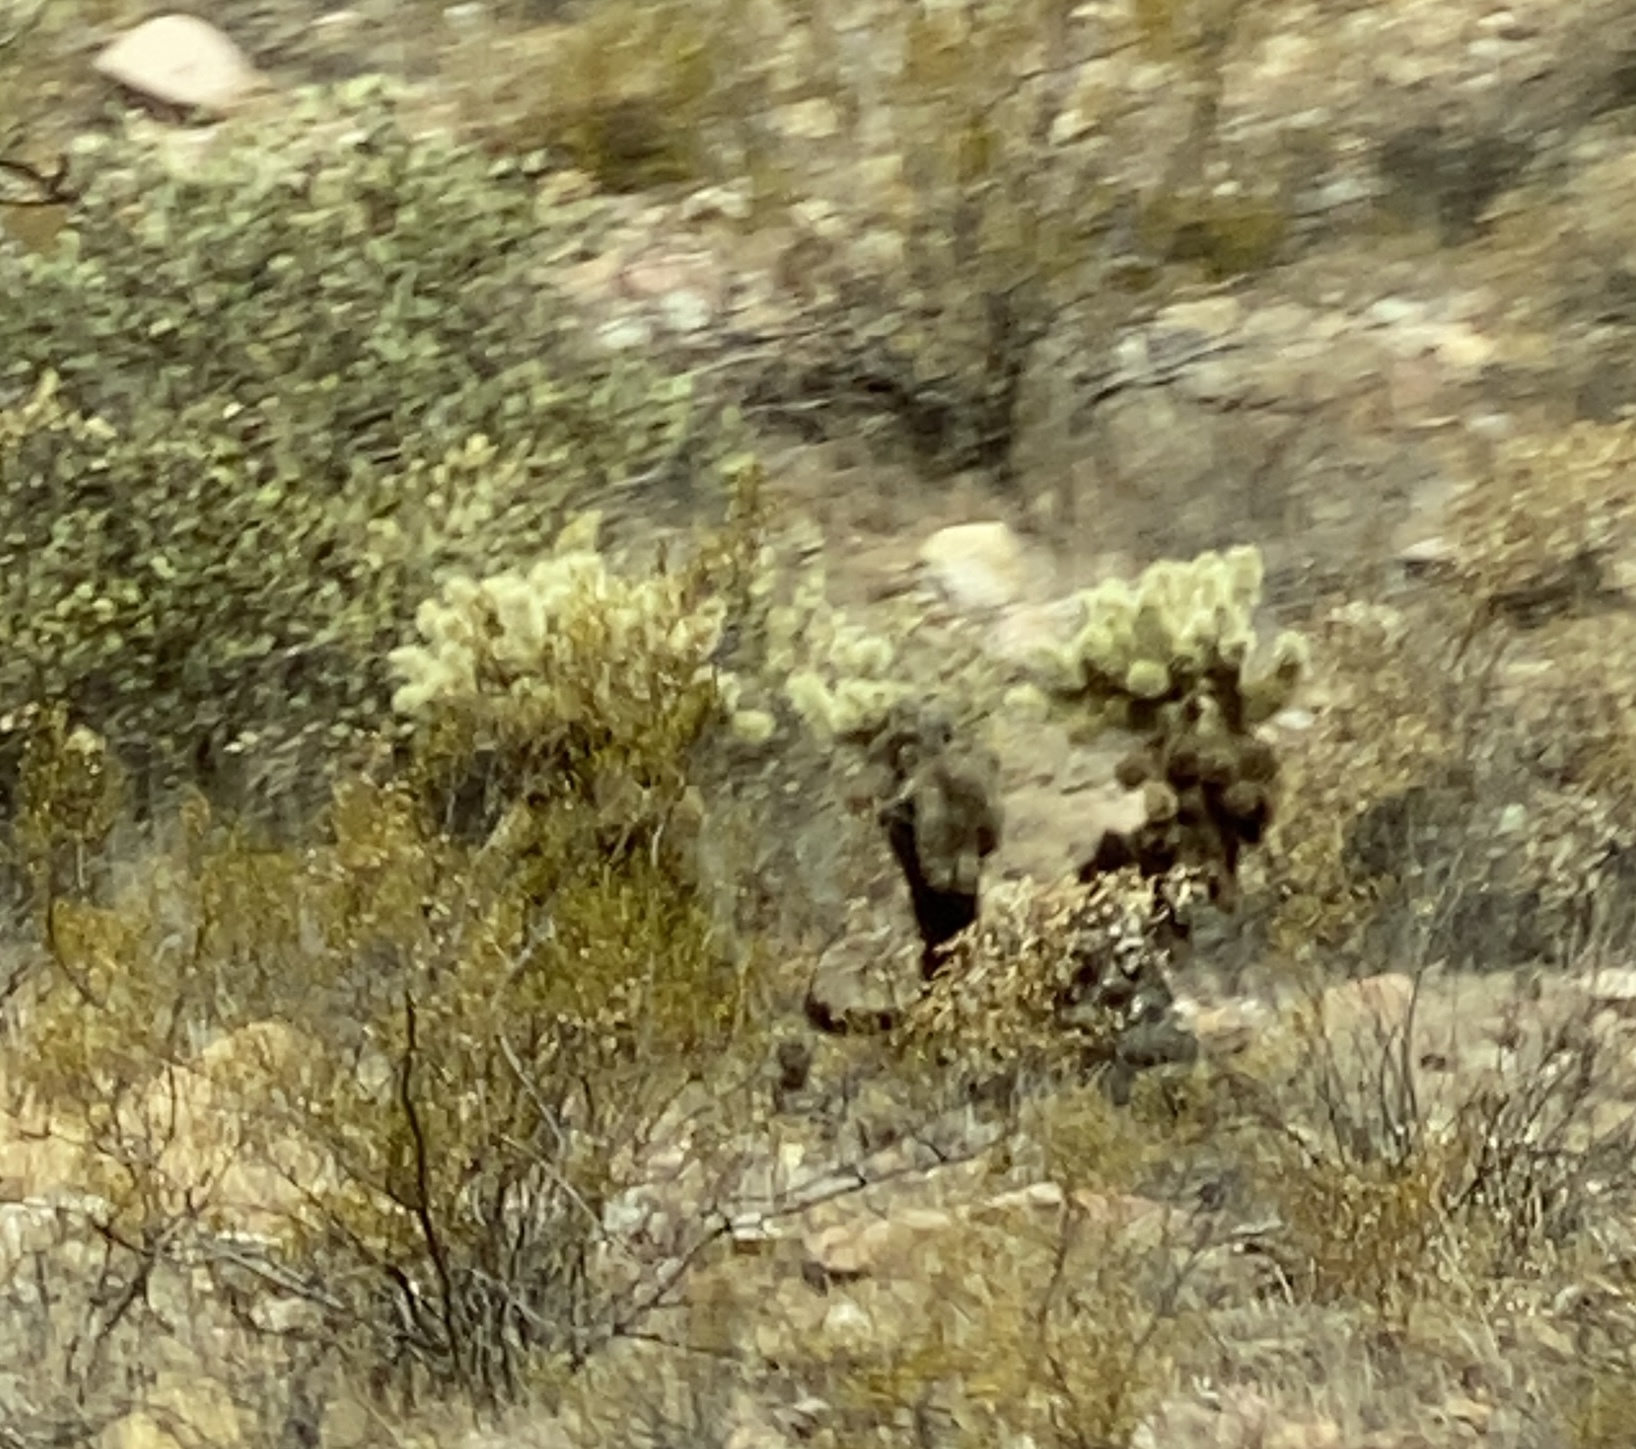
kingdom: Plantae
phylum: Tracheophyta
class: Magnoliopsida
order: Caryophyllales
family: Cactaceae
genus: Cylindropuntia
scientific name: Cylindropuntia fosbergii
